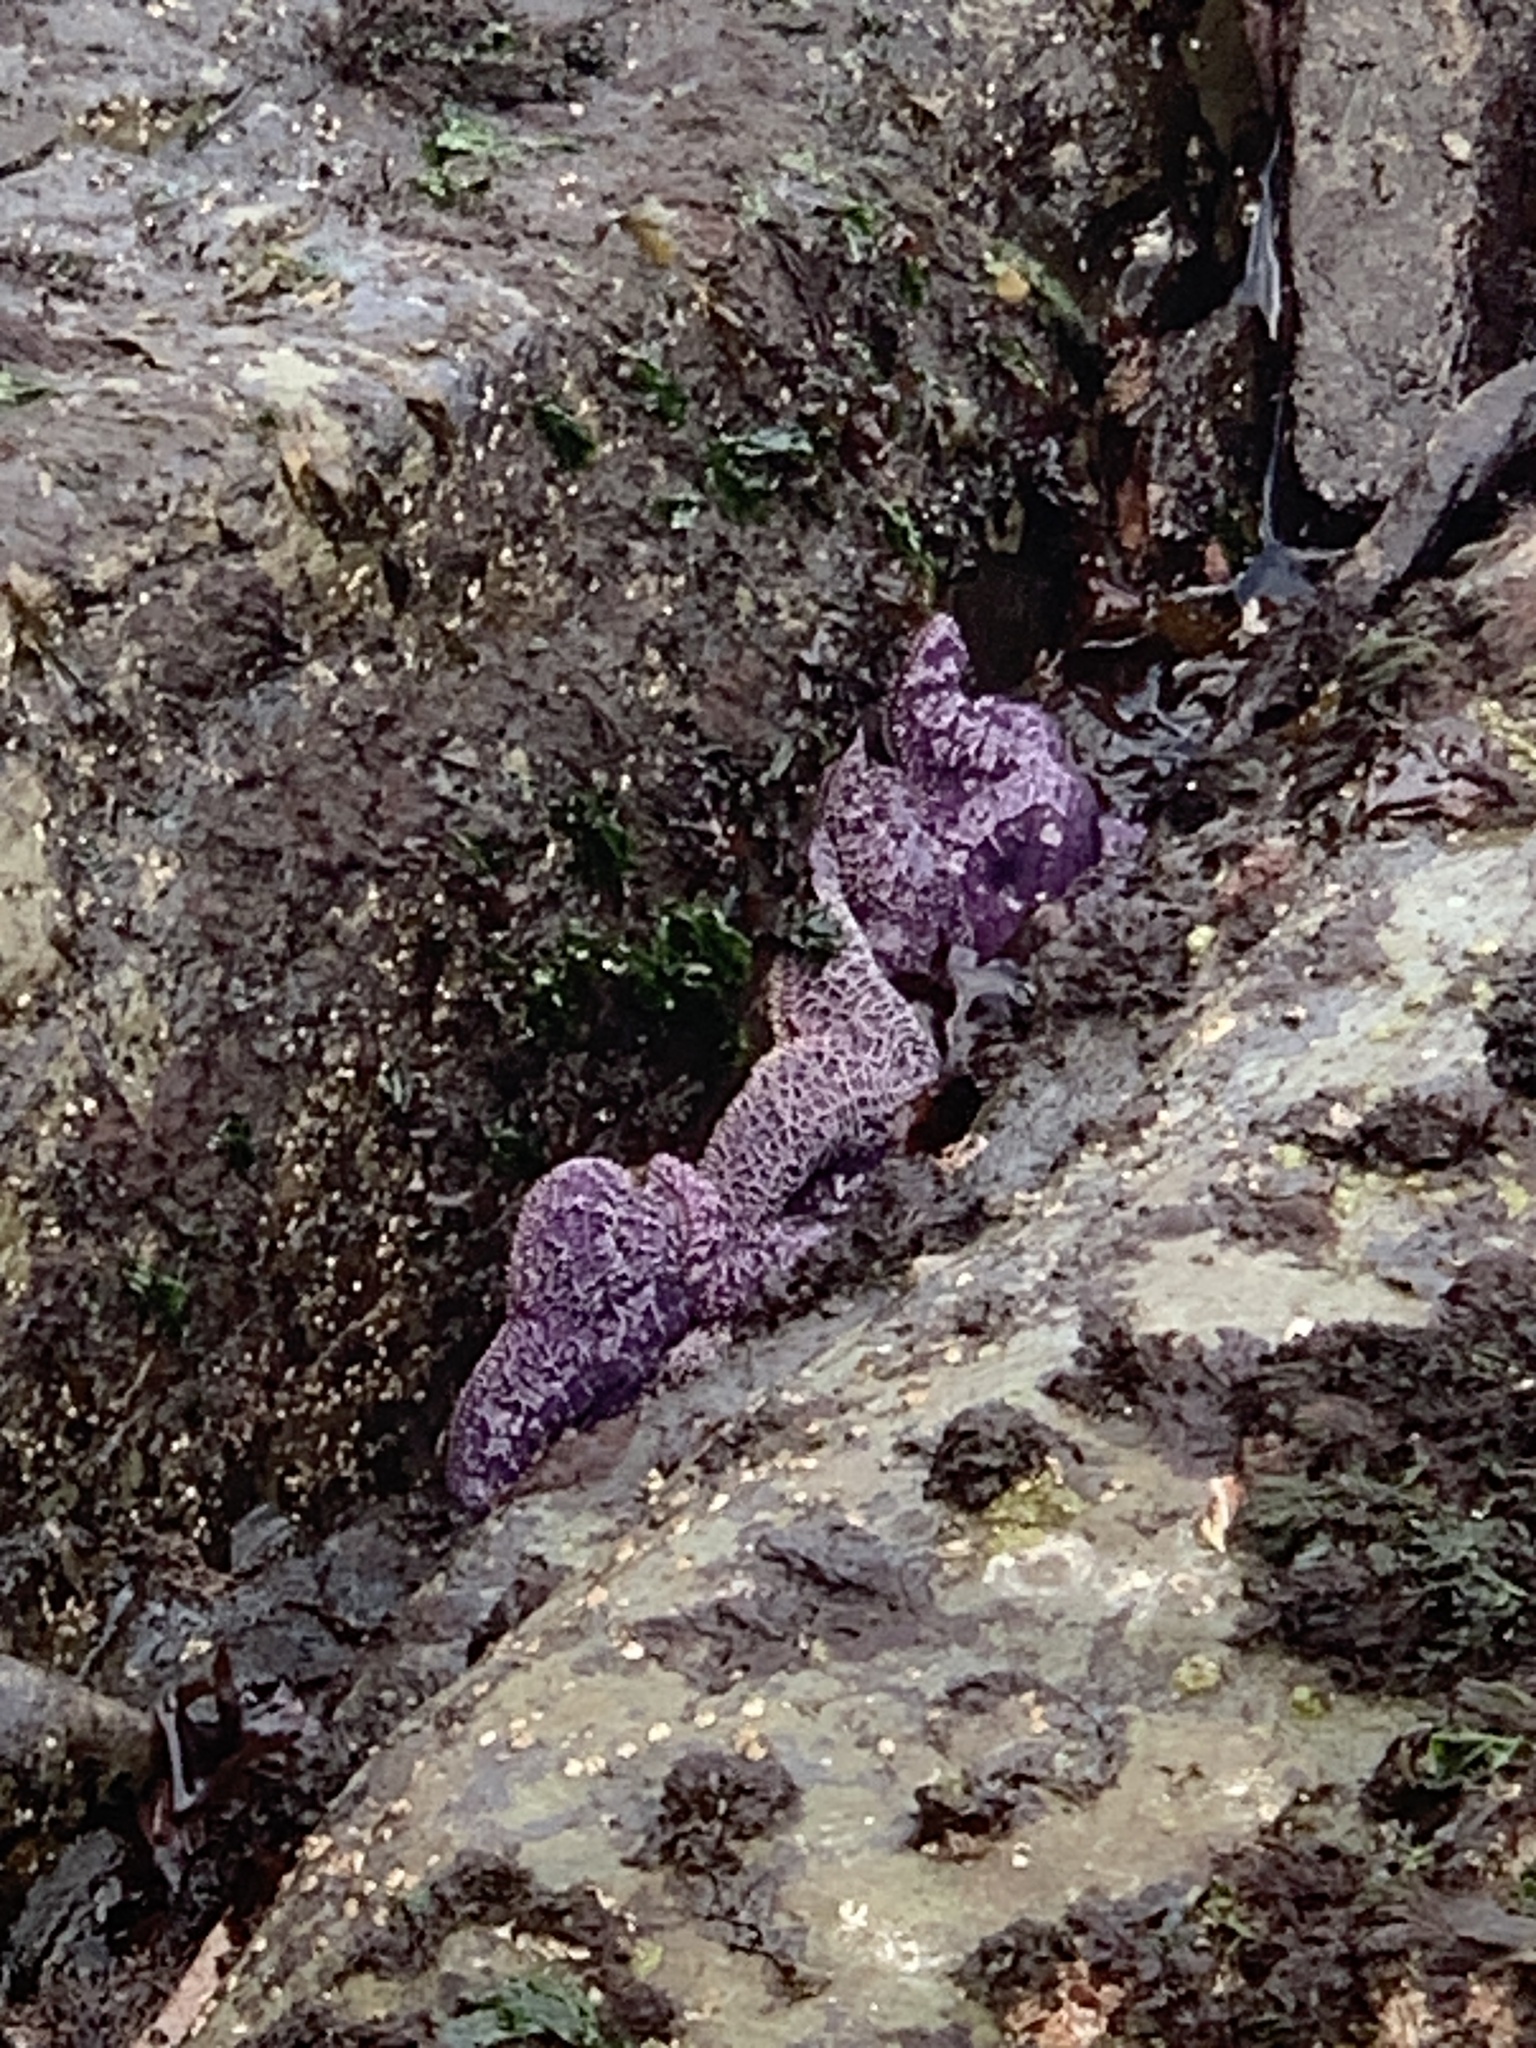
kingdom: Animalia
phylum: Echinodermata
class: Asteroidea
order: Forcipulatida
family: Asteriidae
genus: Pisaster
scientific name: Pisaster ochraceus
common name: Ochre stars
